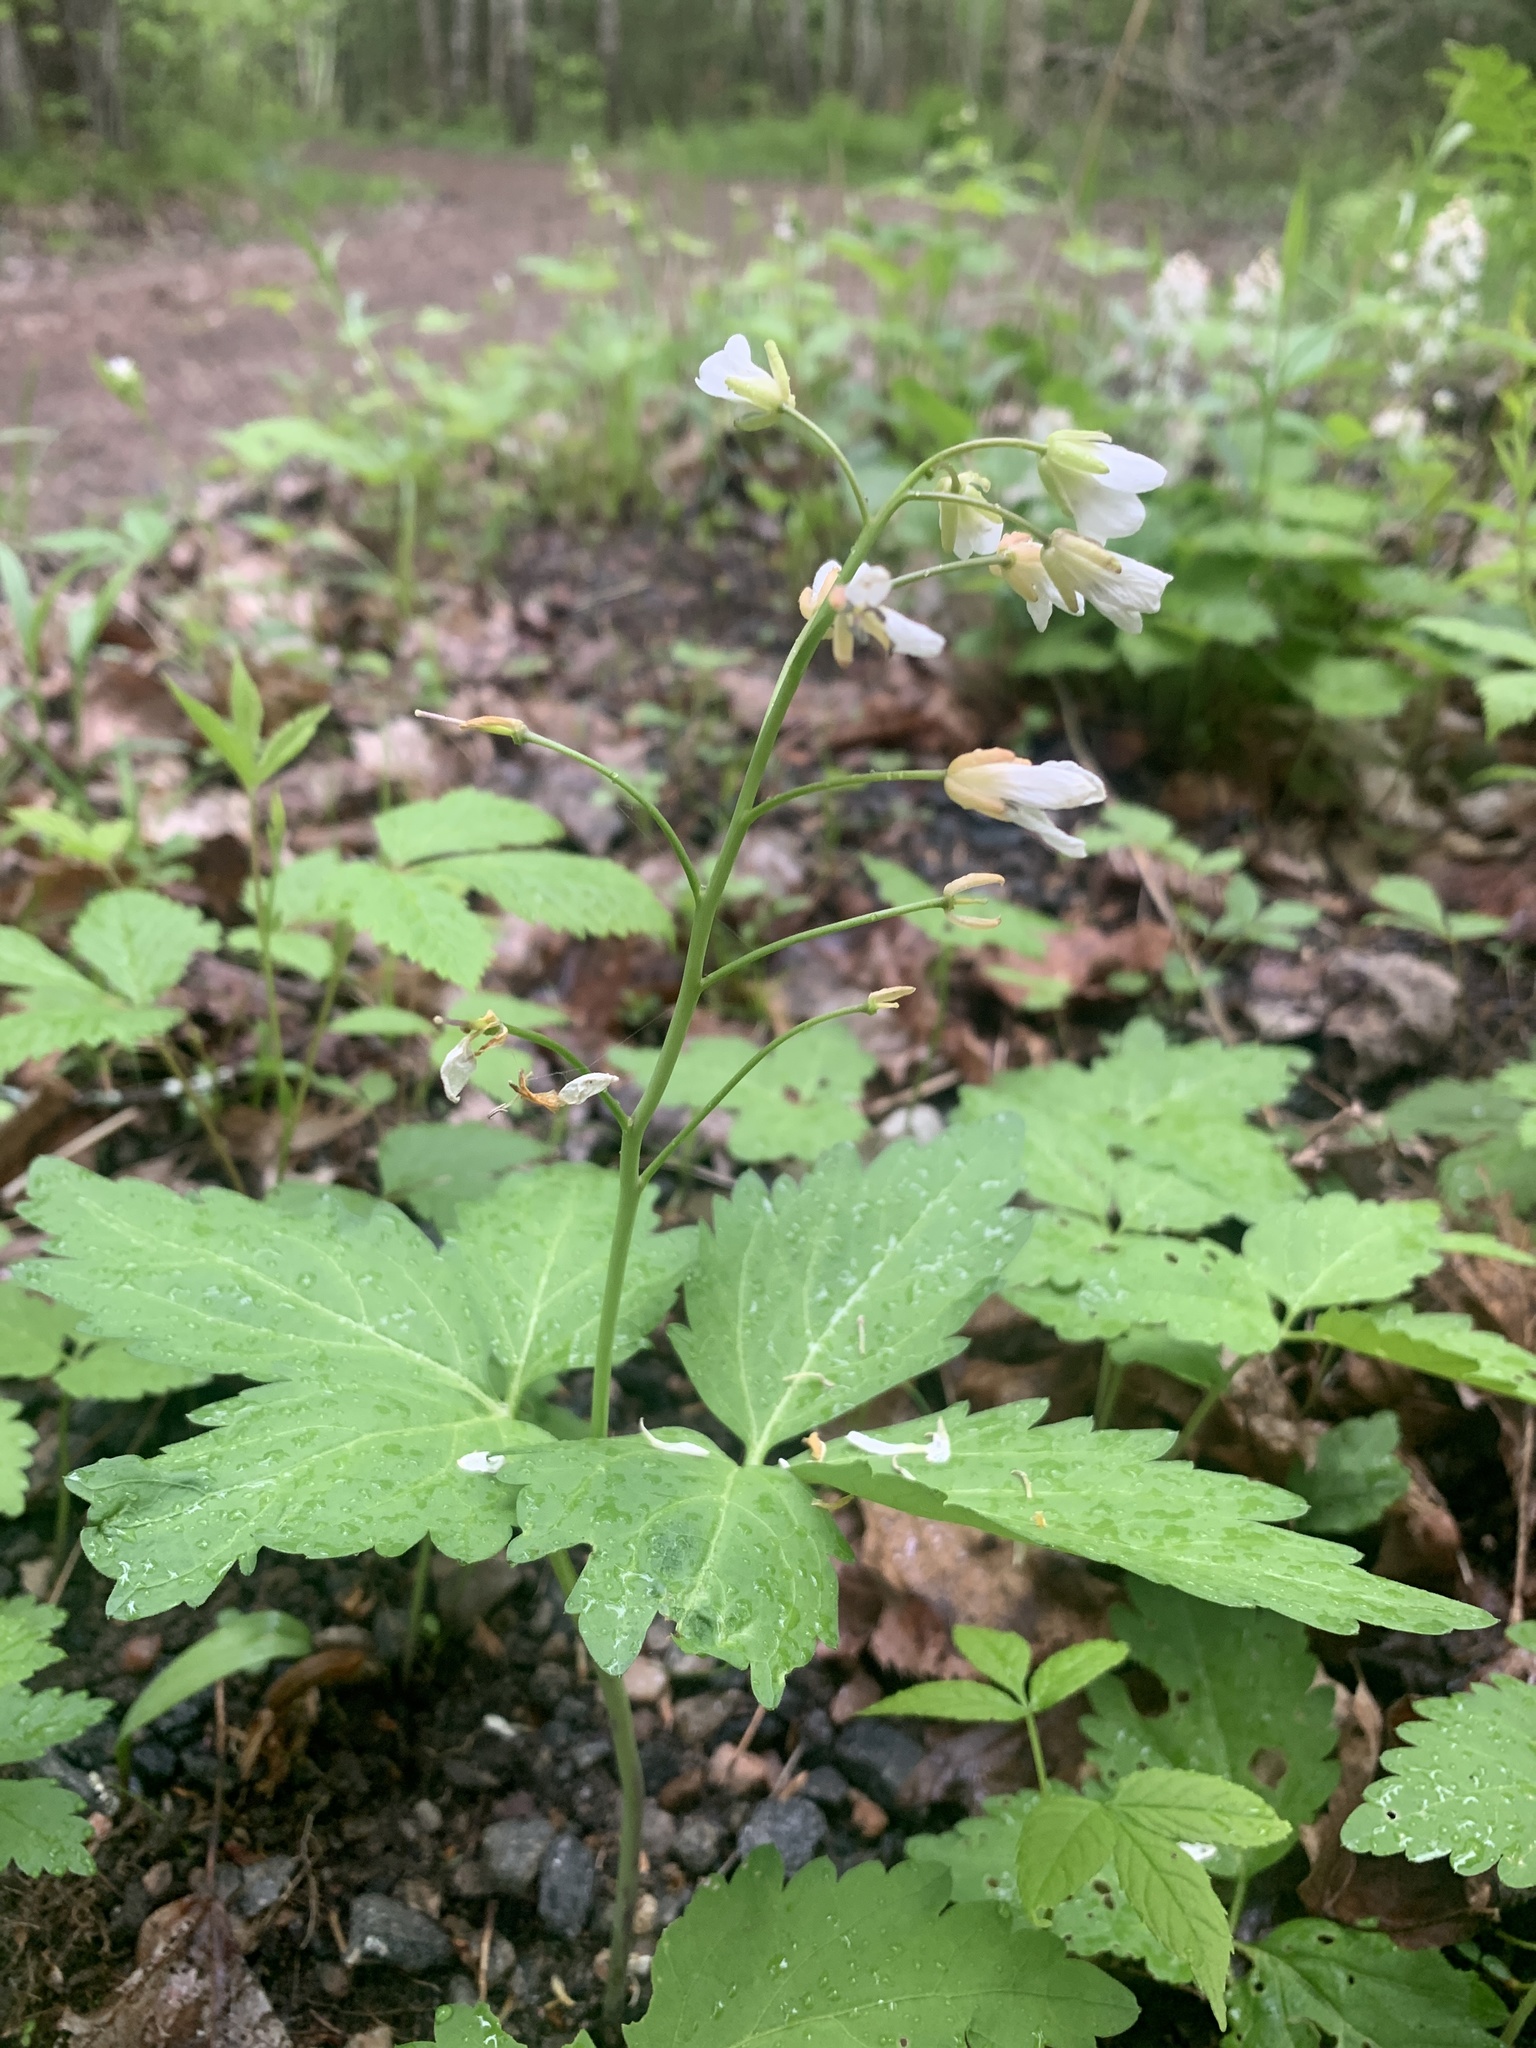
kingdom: Plantae
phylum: Tracheophyta
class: Magnoliopsida
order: Brassicales
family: Brassicaceae
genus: Cardamine
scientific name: Cardamine diphylla
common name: Broad-leaved toothwort
